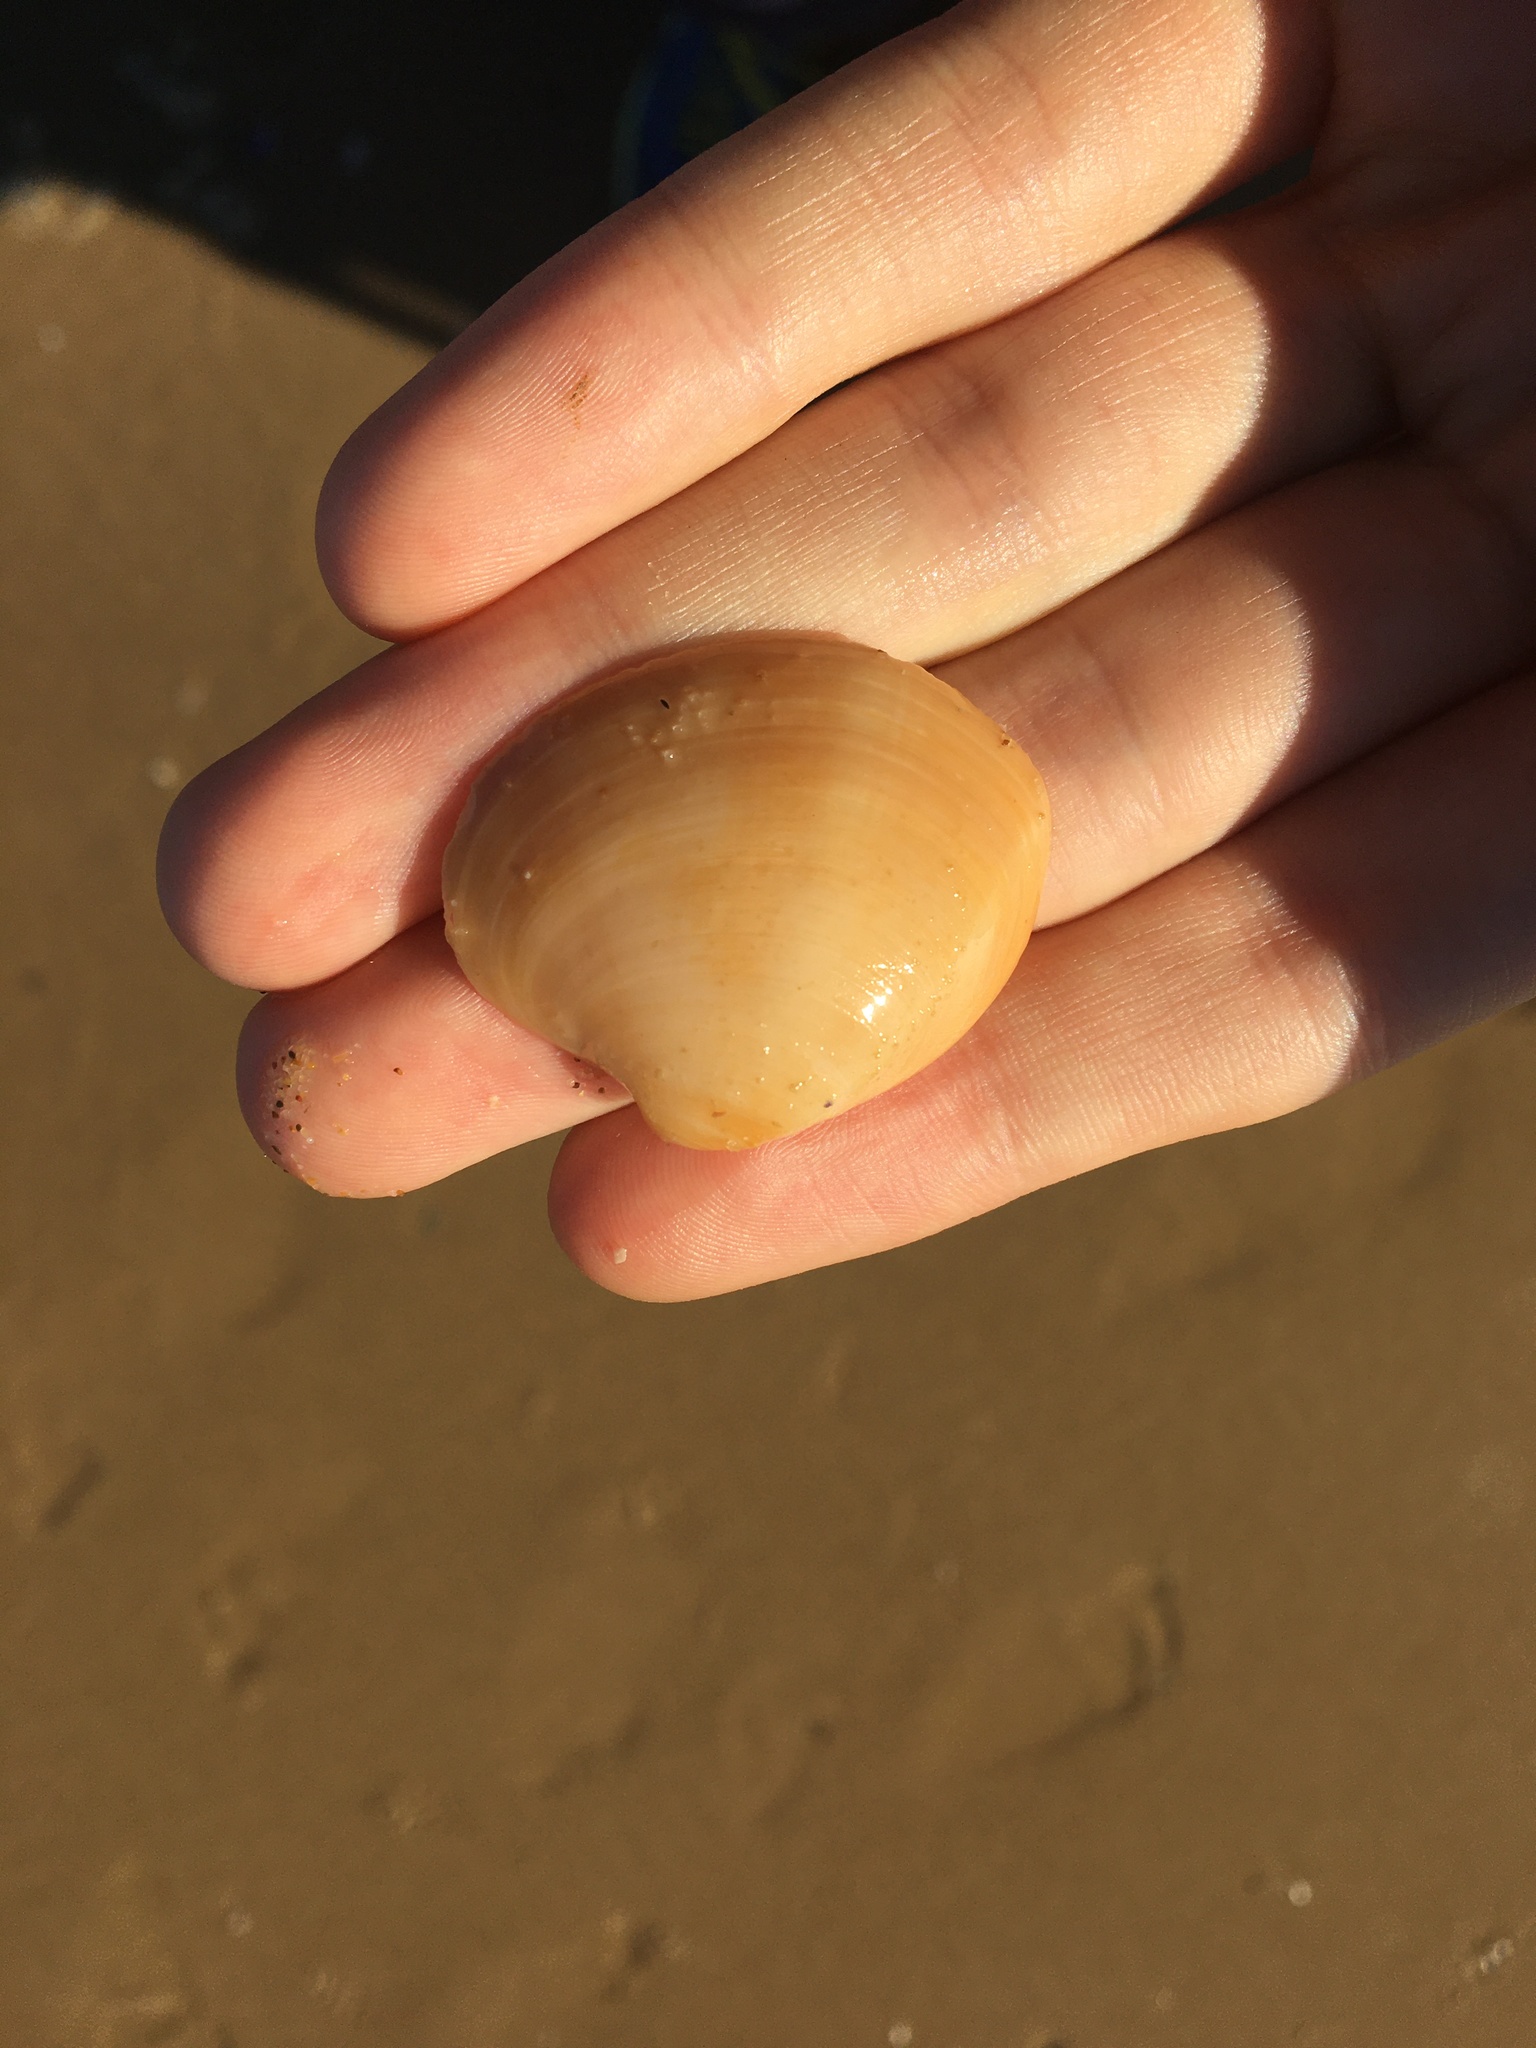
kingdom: Animalia
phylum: Mollusca
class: Bivalvia
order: Venerida
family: Veneridae
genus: Bassina
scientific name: Bassina pachyphylla
